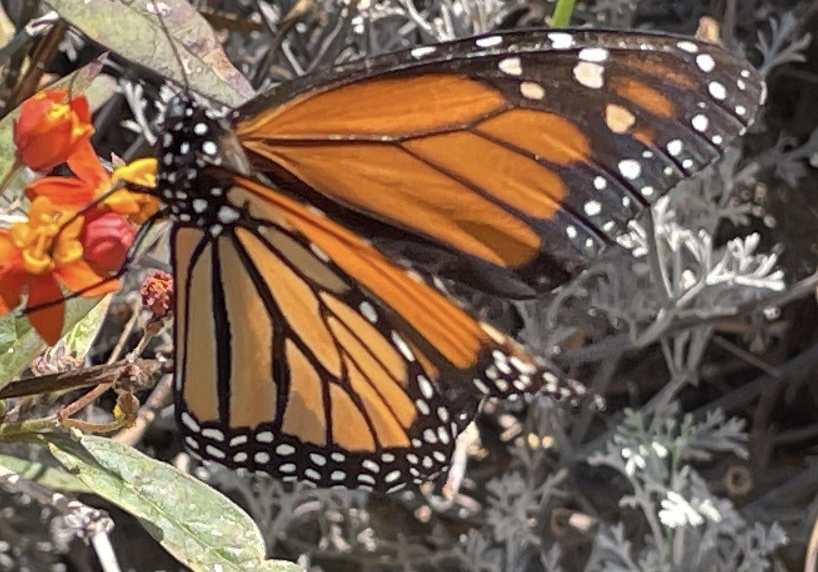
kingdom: Animalia
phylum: Arthropoda
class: Insecta
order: Lepidoptera
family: Nymphalidae
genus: Danaus
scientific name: Danaus plexippus
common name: Monarch
